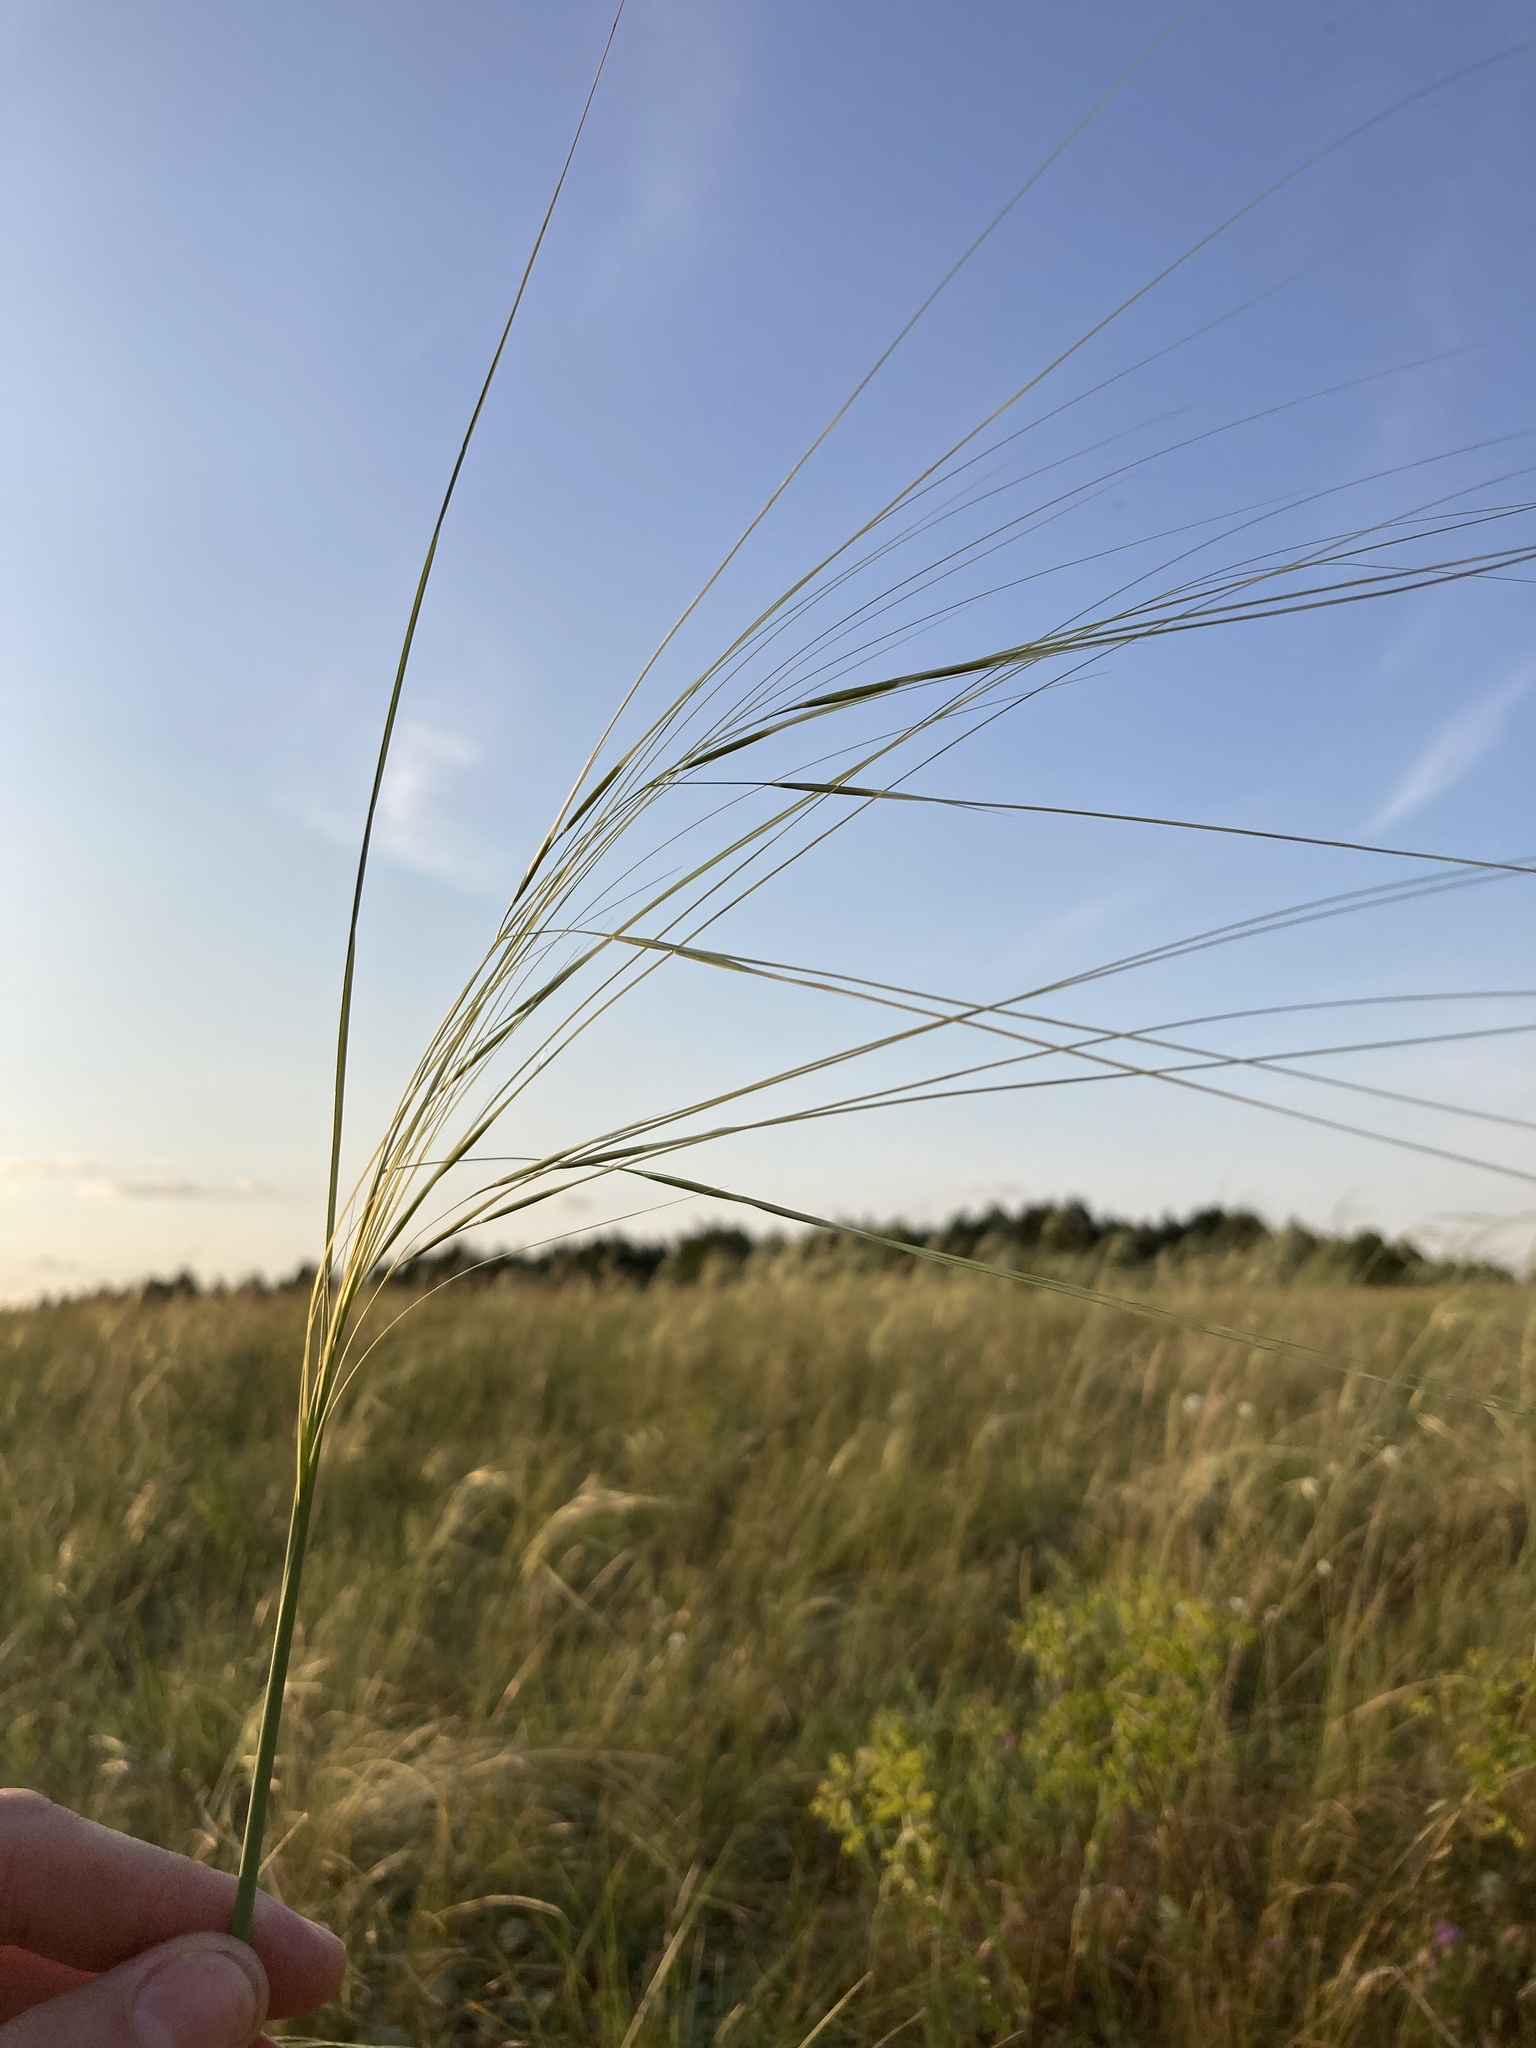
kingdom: Plantae
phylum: Tracheophyta
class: Liliopsida
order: Poales
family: Poaceae
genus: Stipa
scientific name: Stipa capillata
